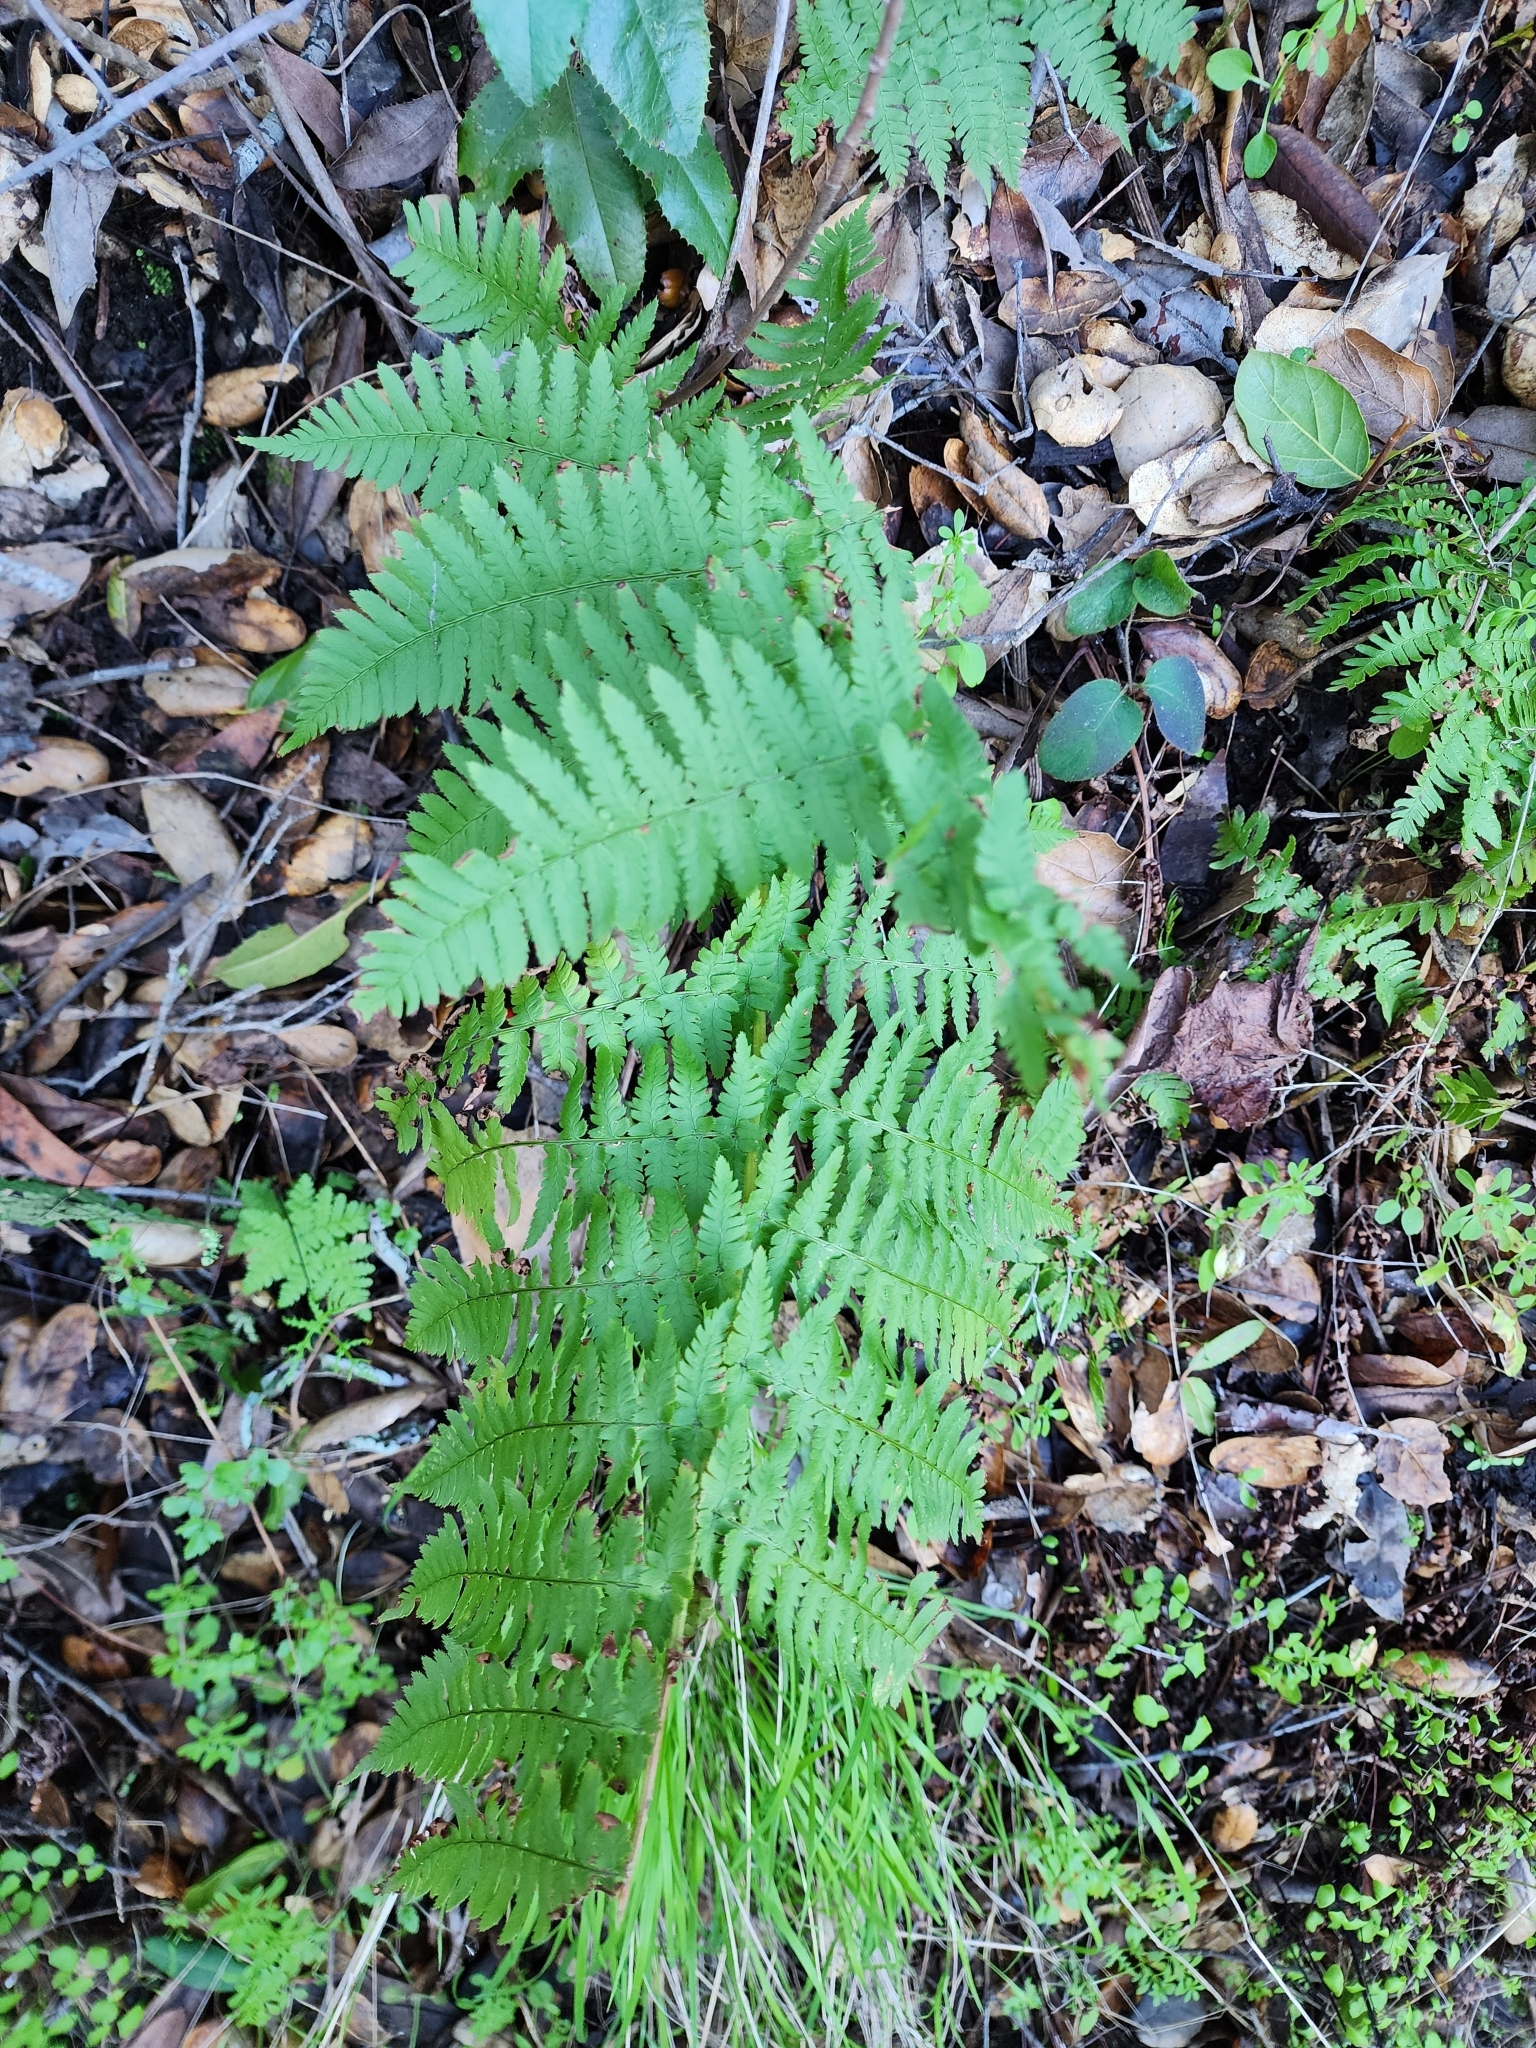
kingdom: Plantae
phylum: Tracheophyta
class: Polypodiopsida
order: Polypodiales
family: Dryopteridaceae
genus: Dryopteris
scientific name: Dryopteris arguta
